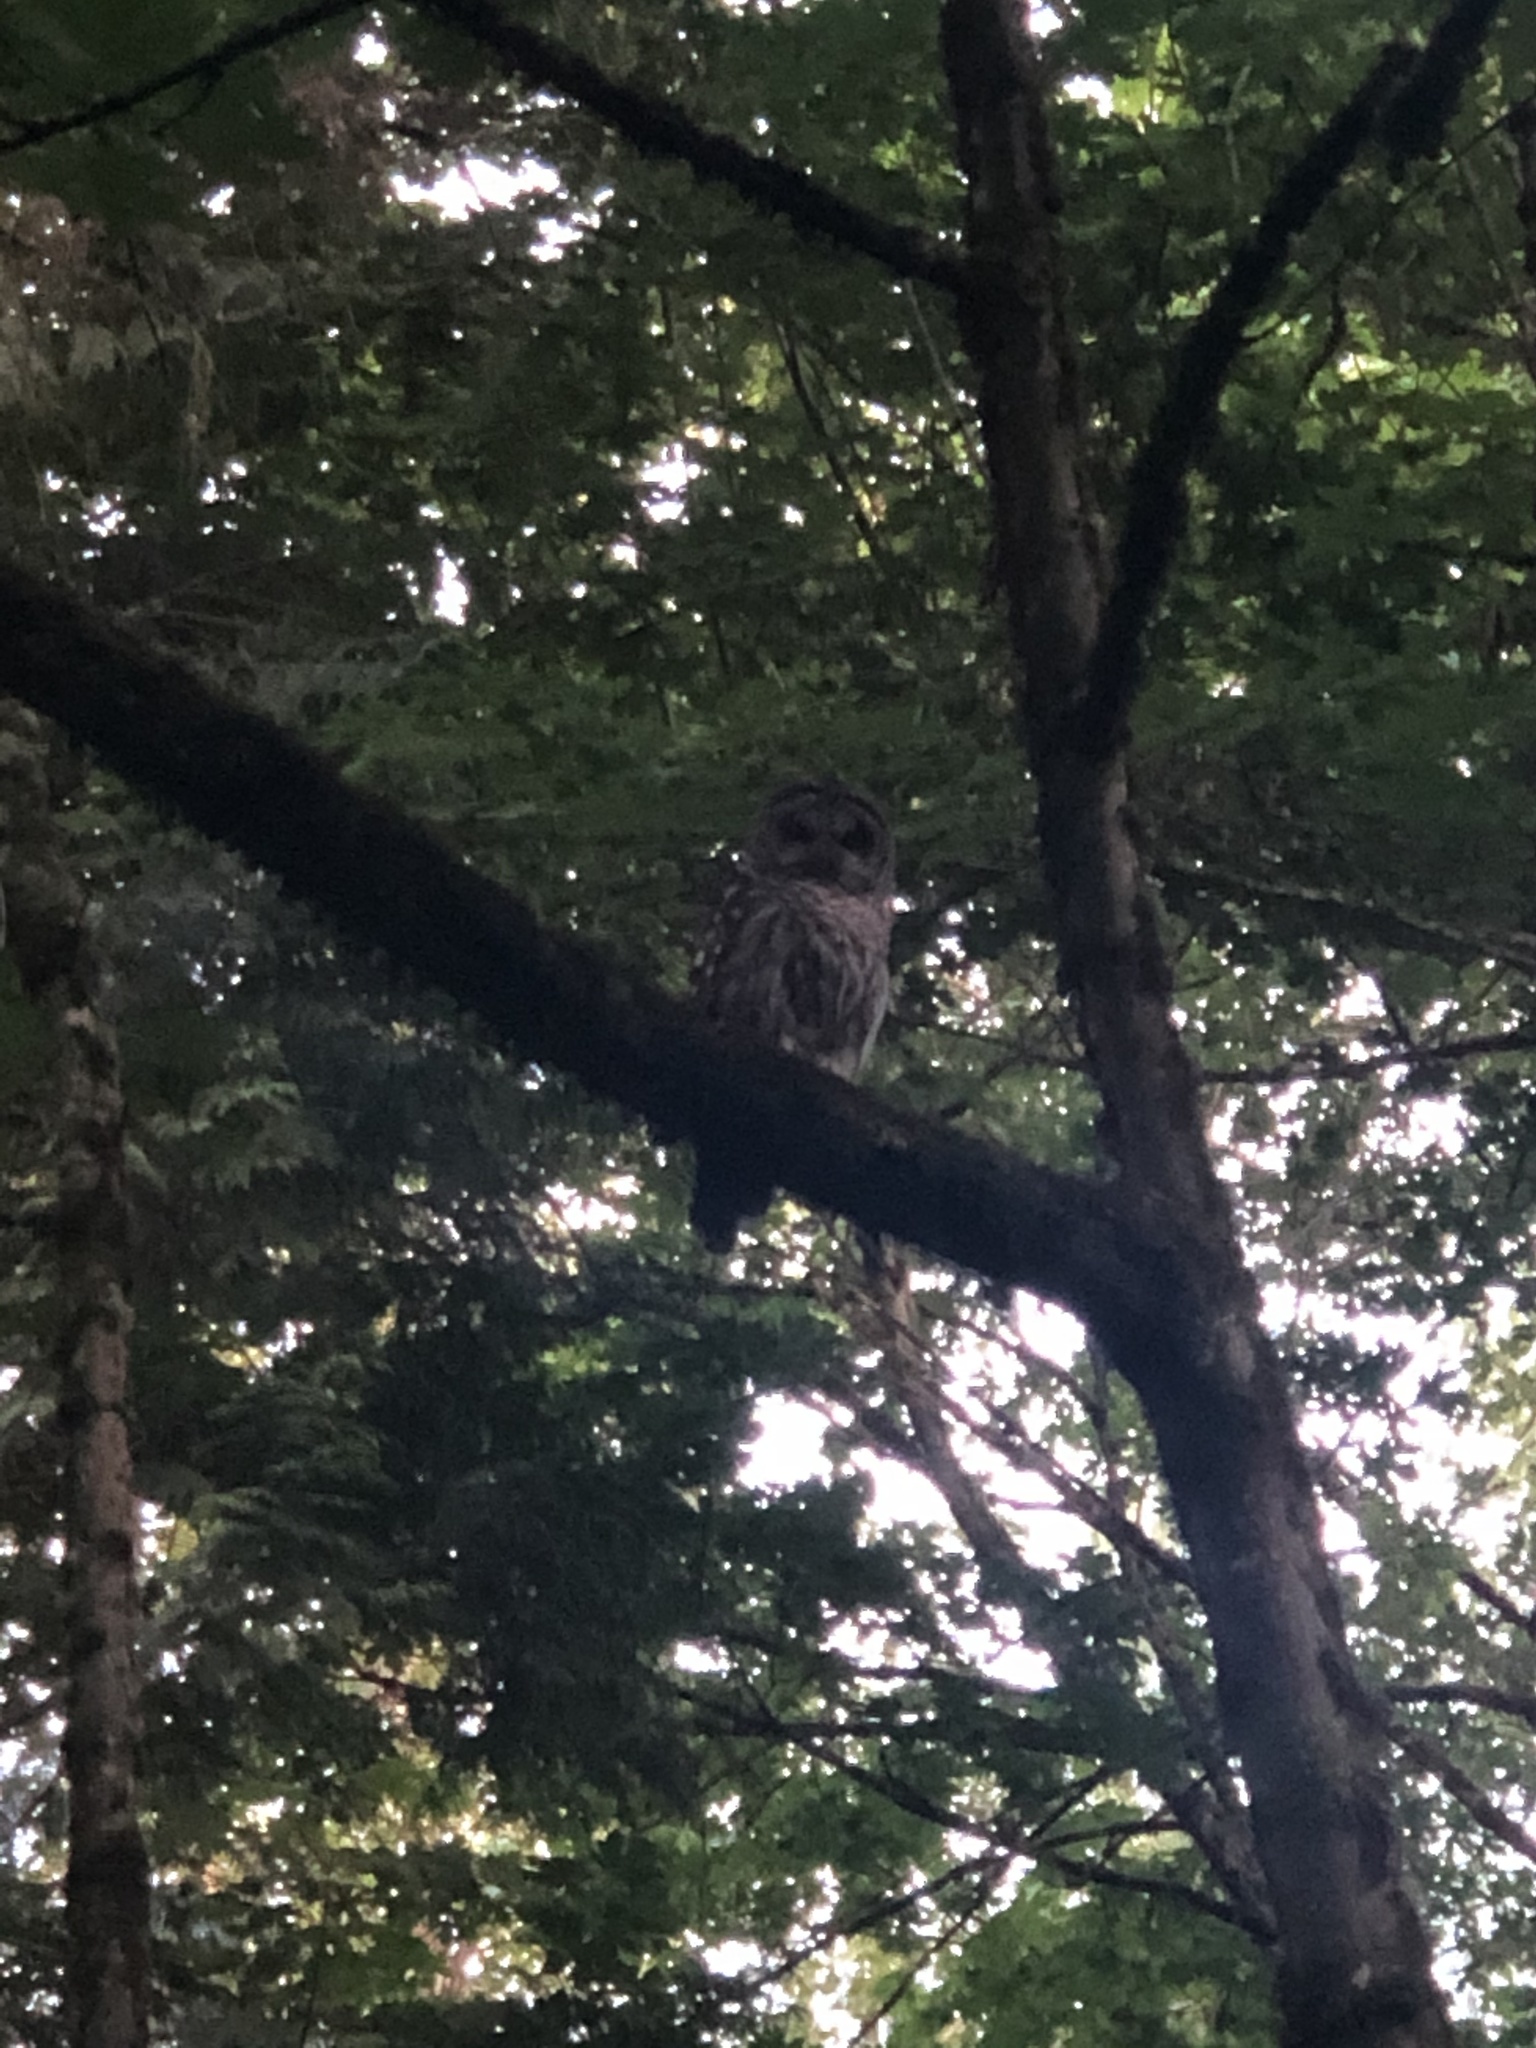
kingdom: Animalia
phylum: Chordata
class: Aves
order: Strigiformes
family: Strigidae
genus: Strix
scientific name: Strix varia
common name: Barred owl
